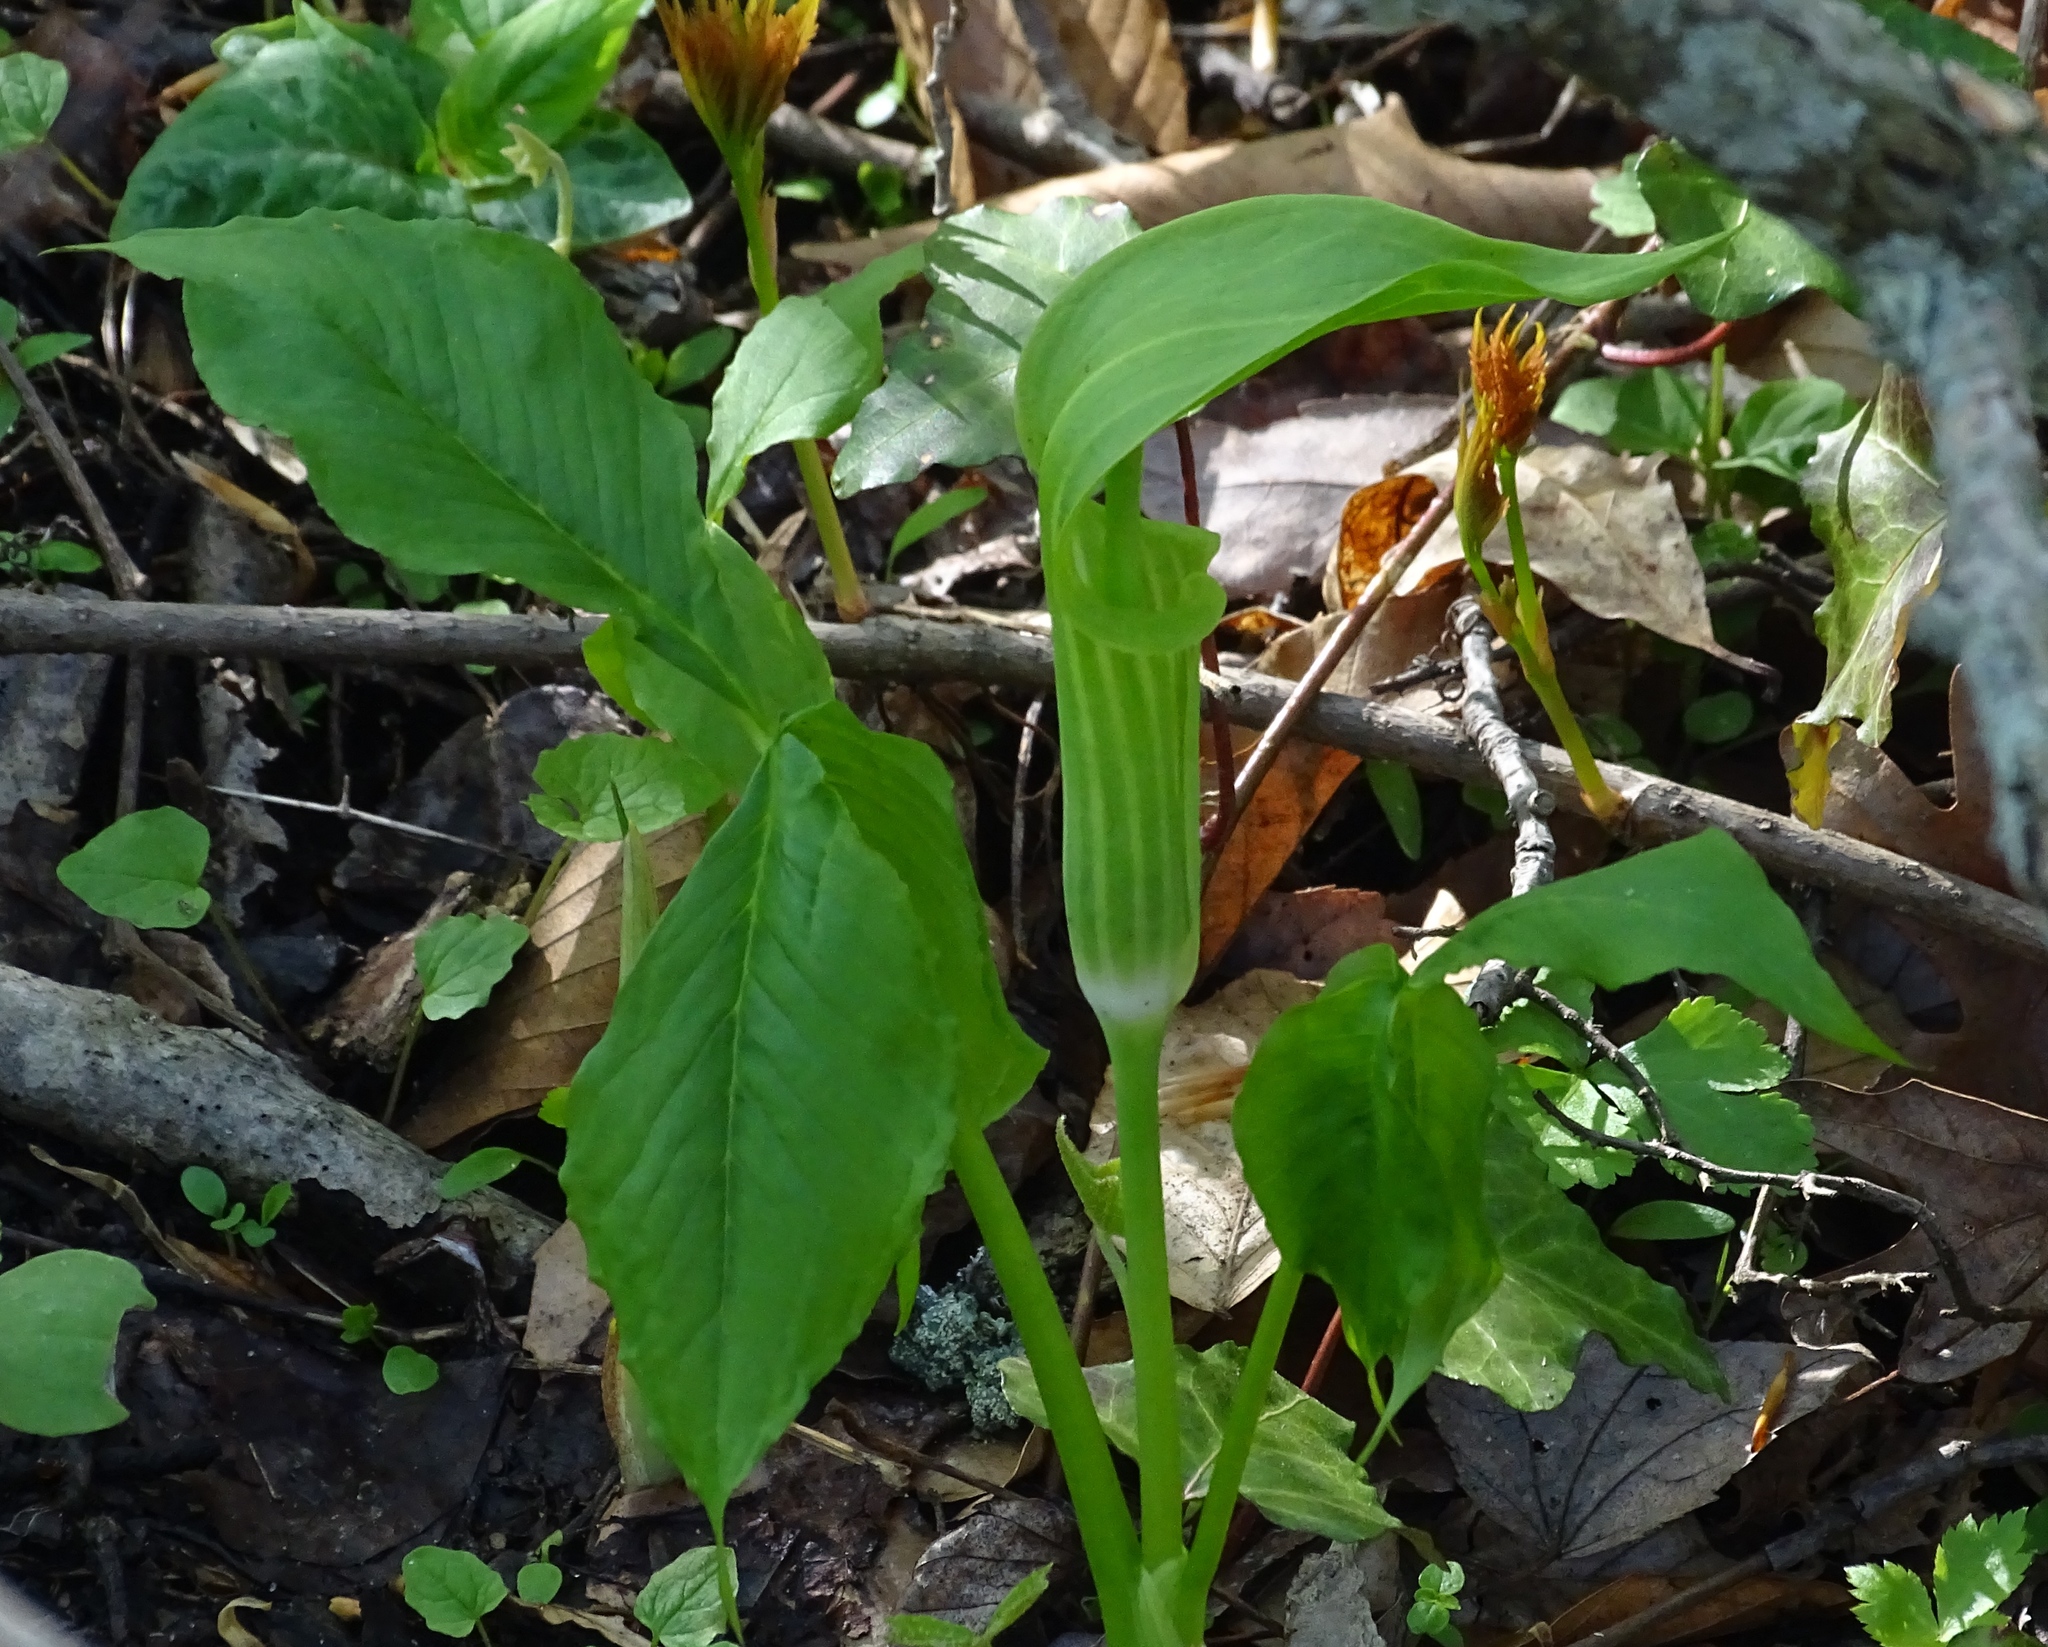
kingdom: Plantae
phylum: Tracheophyta
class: Liliopsida
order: Alismatales
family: Araceae
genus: Arisaema
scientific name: Arisaema triphyllum
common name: Jack-in-the-pulpit
